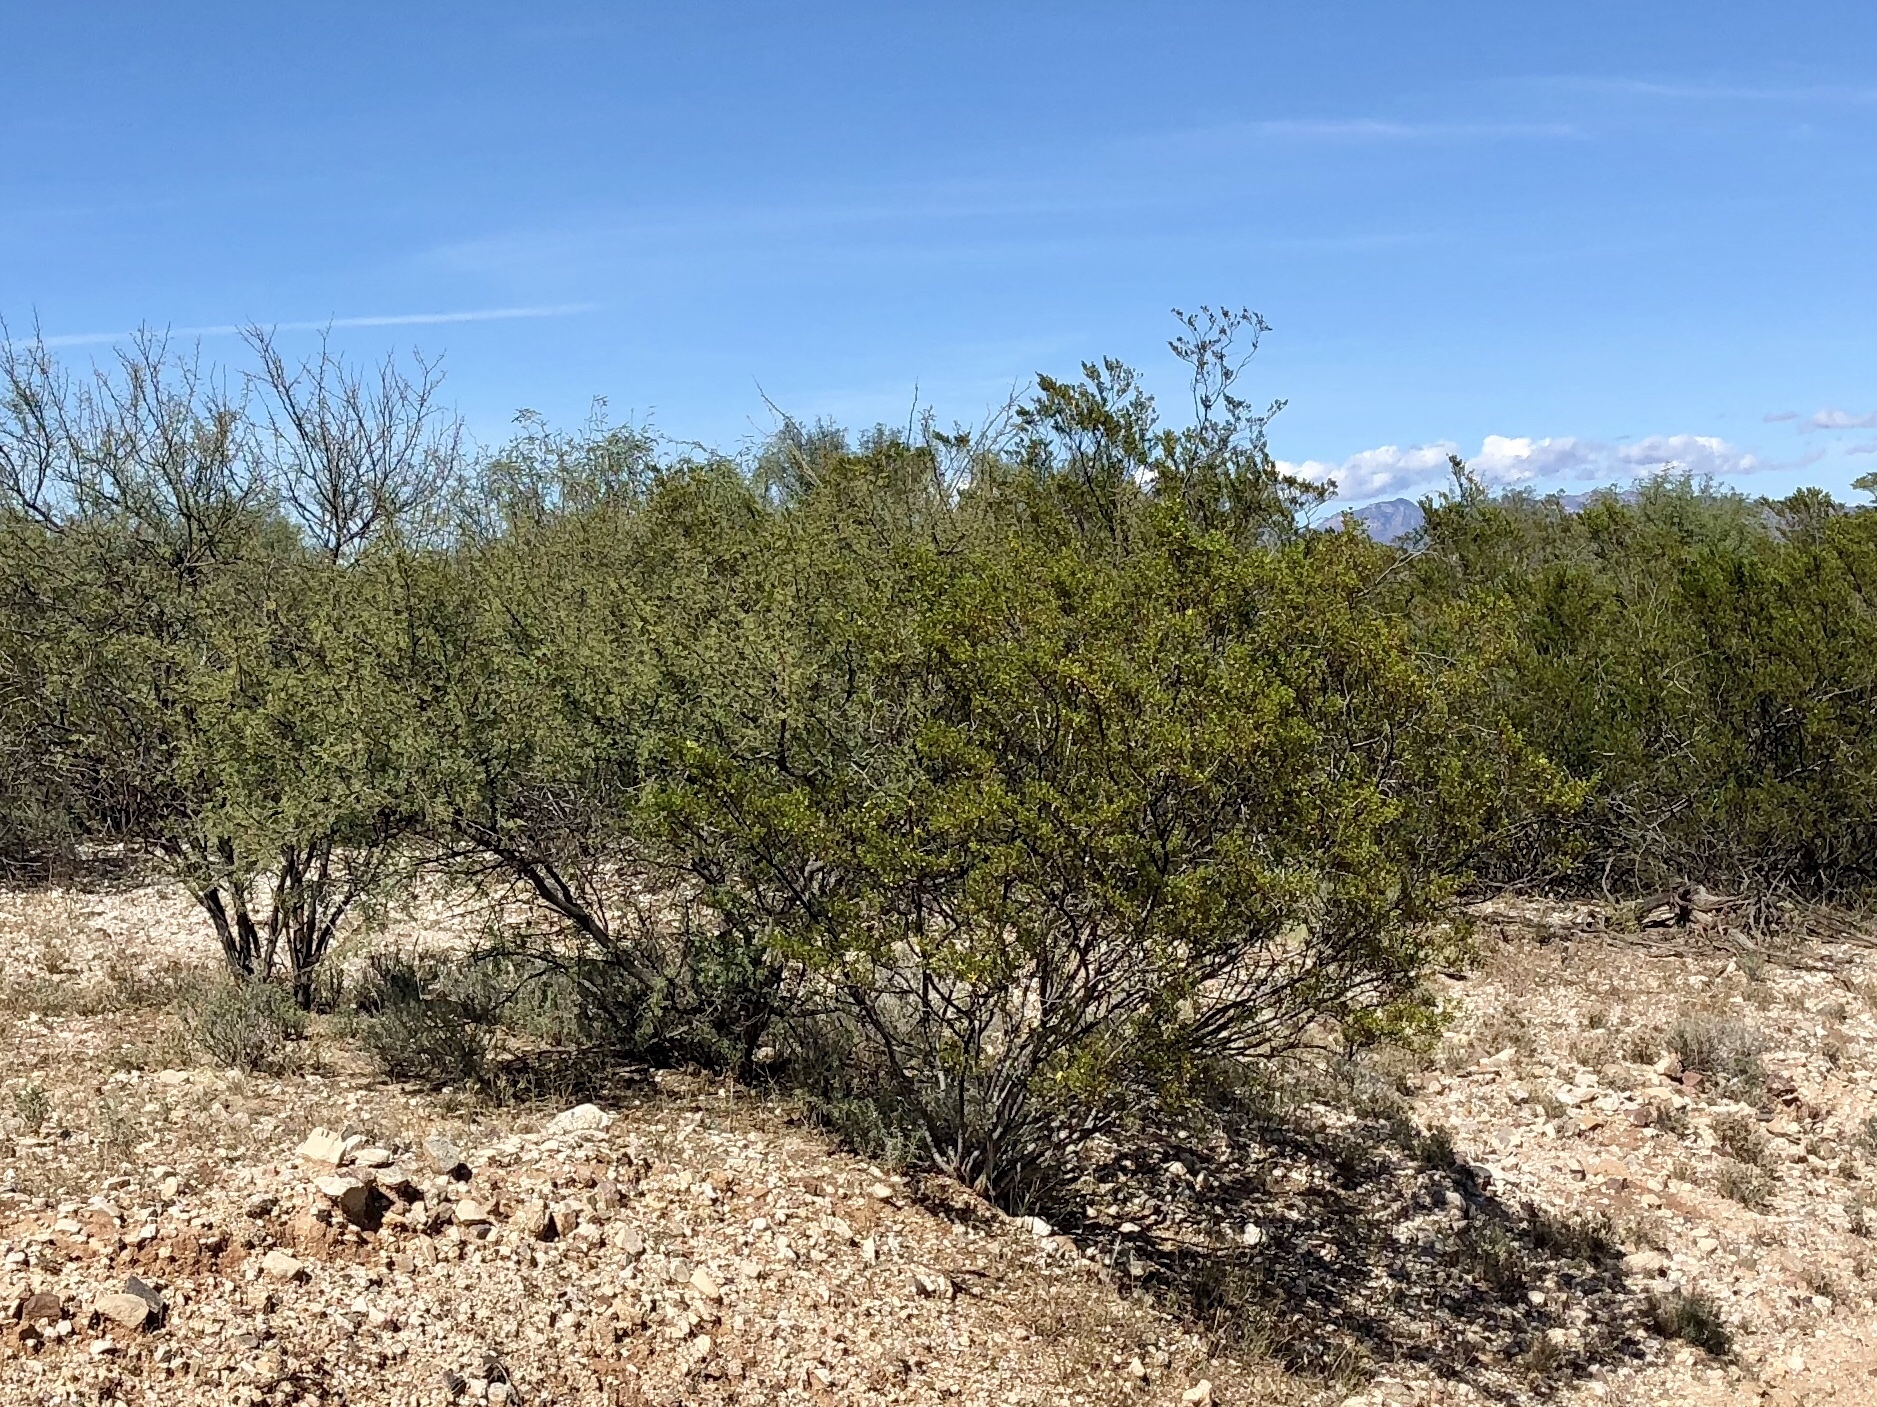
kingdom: Plantae
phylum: Tracheophyta
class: Magnoliopsida
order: Zygophyllales
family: Zygophyllaceae
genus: Larrea
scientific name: Larrea tridentata
